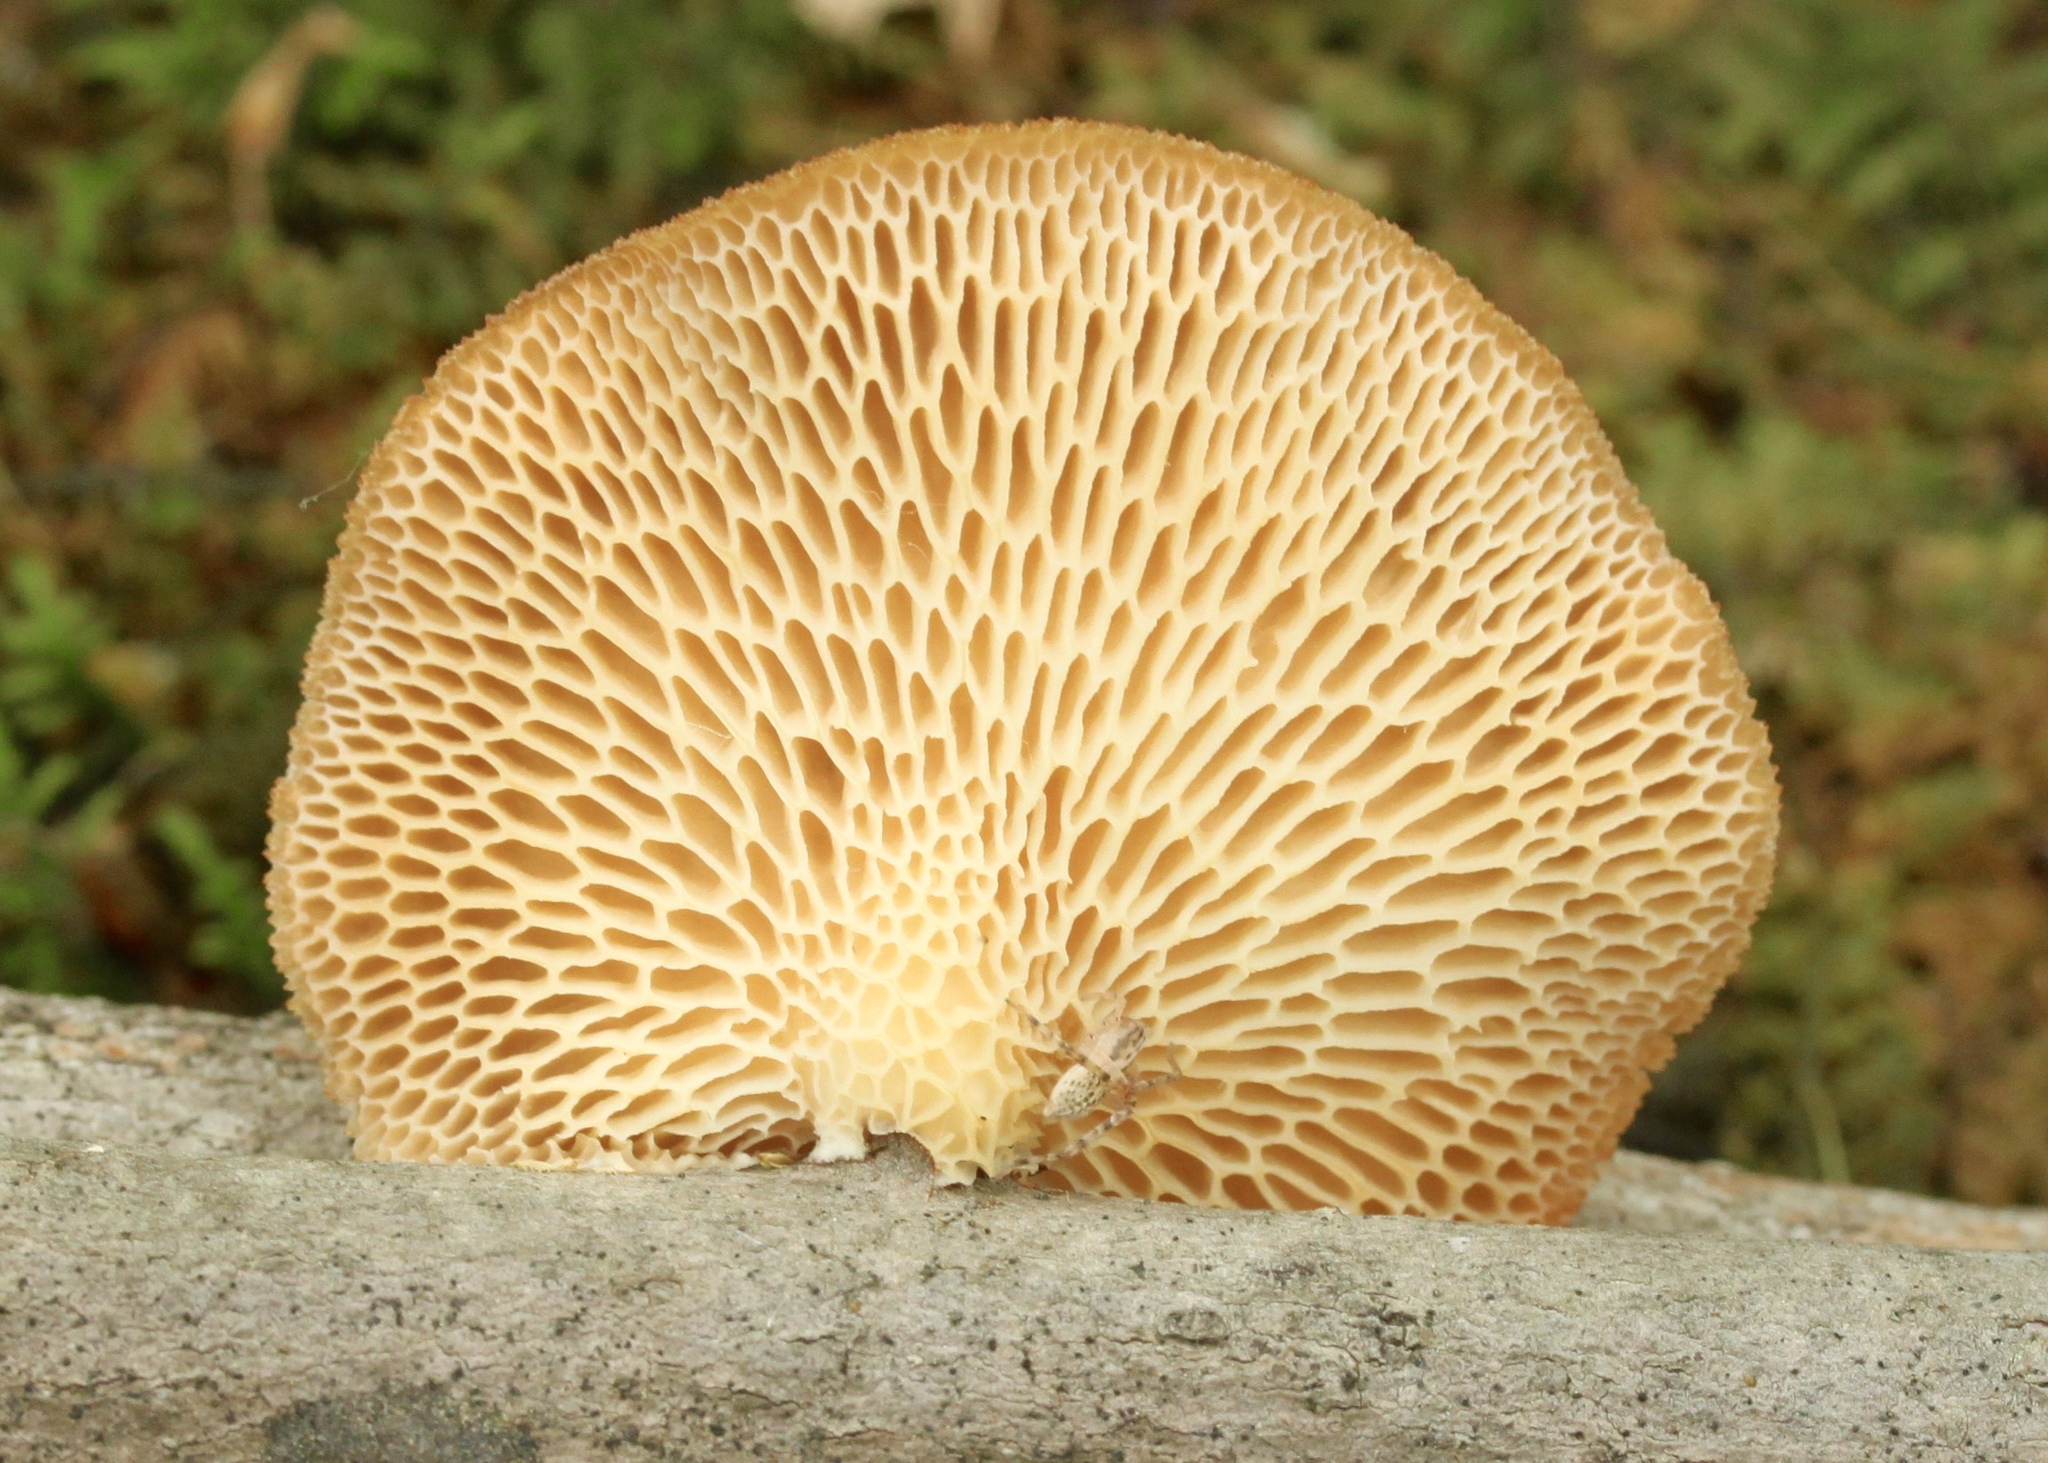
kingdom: Fungi
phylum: Basidiomycota
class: Agaricomycetes
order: Polyporales
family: Polyporaceae
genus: Neofavolus
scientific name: Neofavolus alveolaris
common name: Hexagonal-pored polypore
